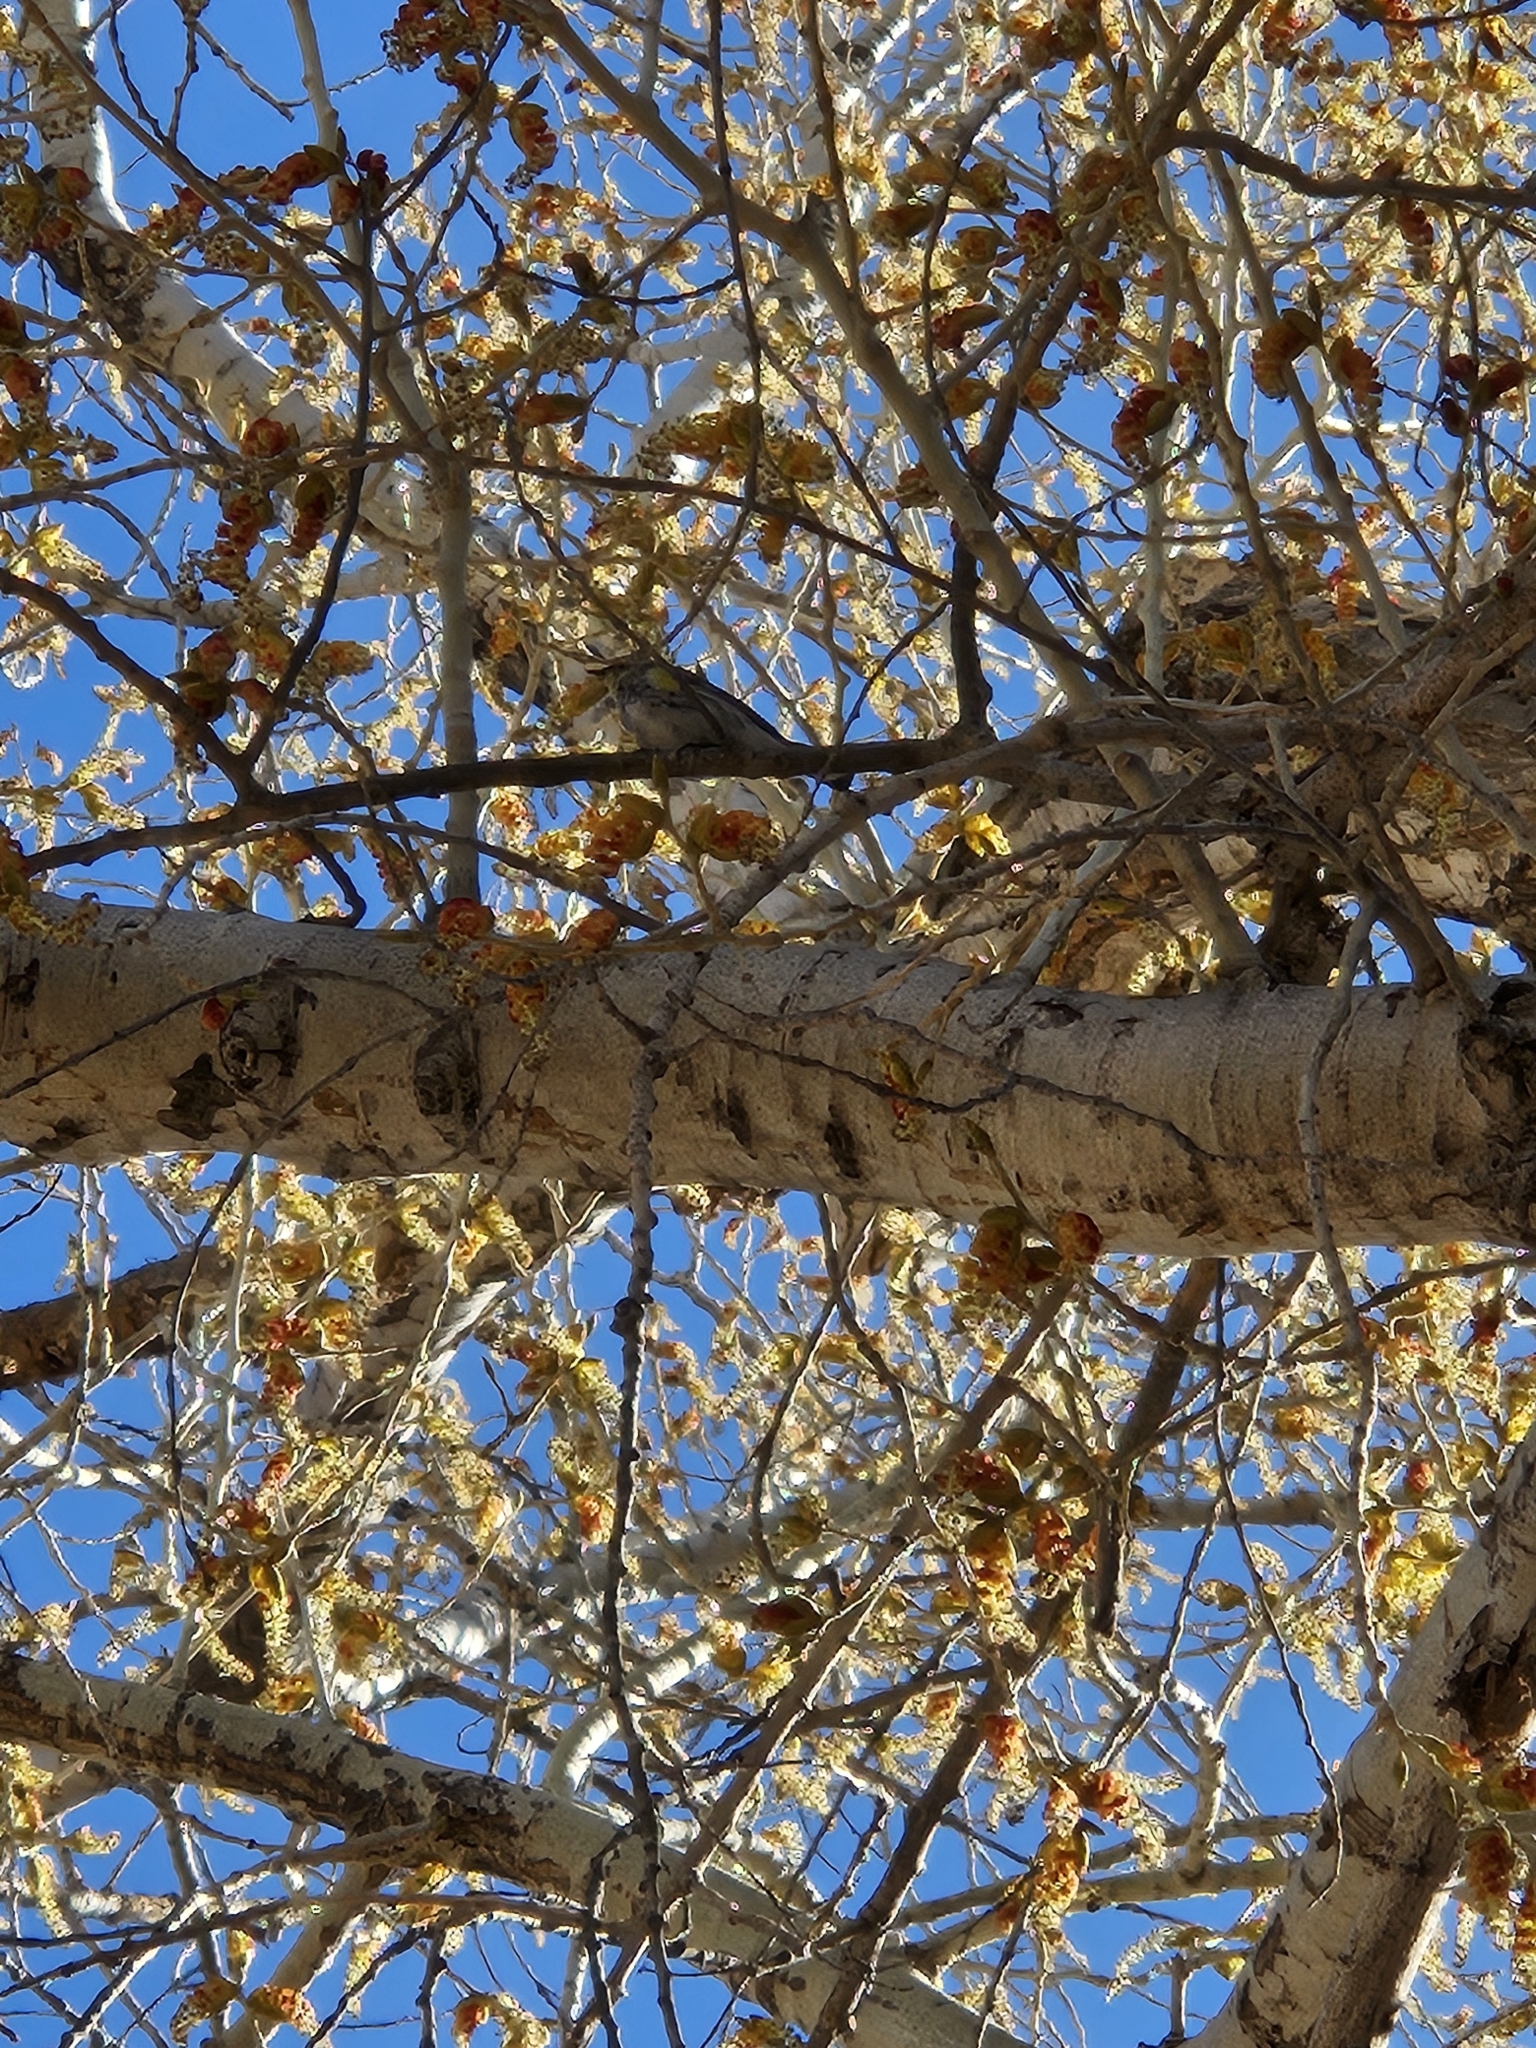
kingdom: Plantae
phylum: Tracheophyta
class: Magnoliopsida
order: Malpighiales
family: Salicaceae
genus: Populus
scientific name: Populus fremontii
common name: Fremont's cottonwood
